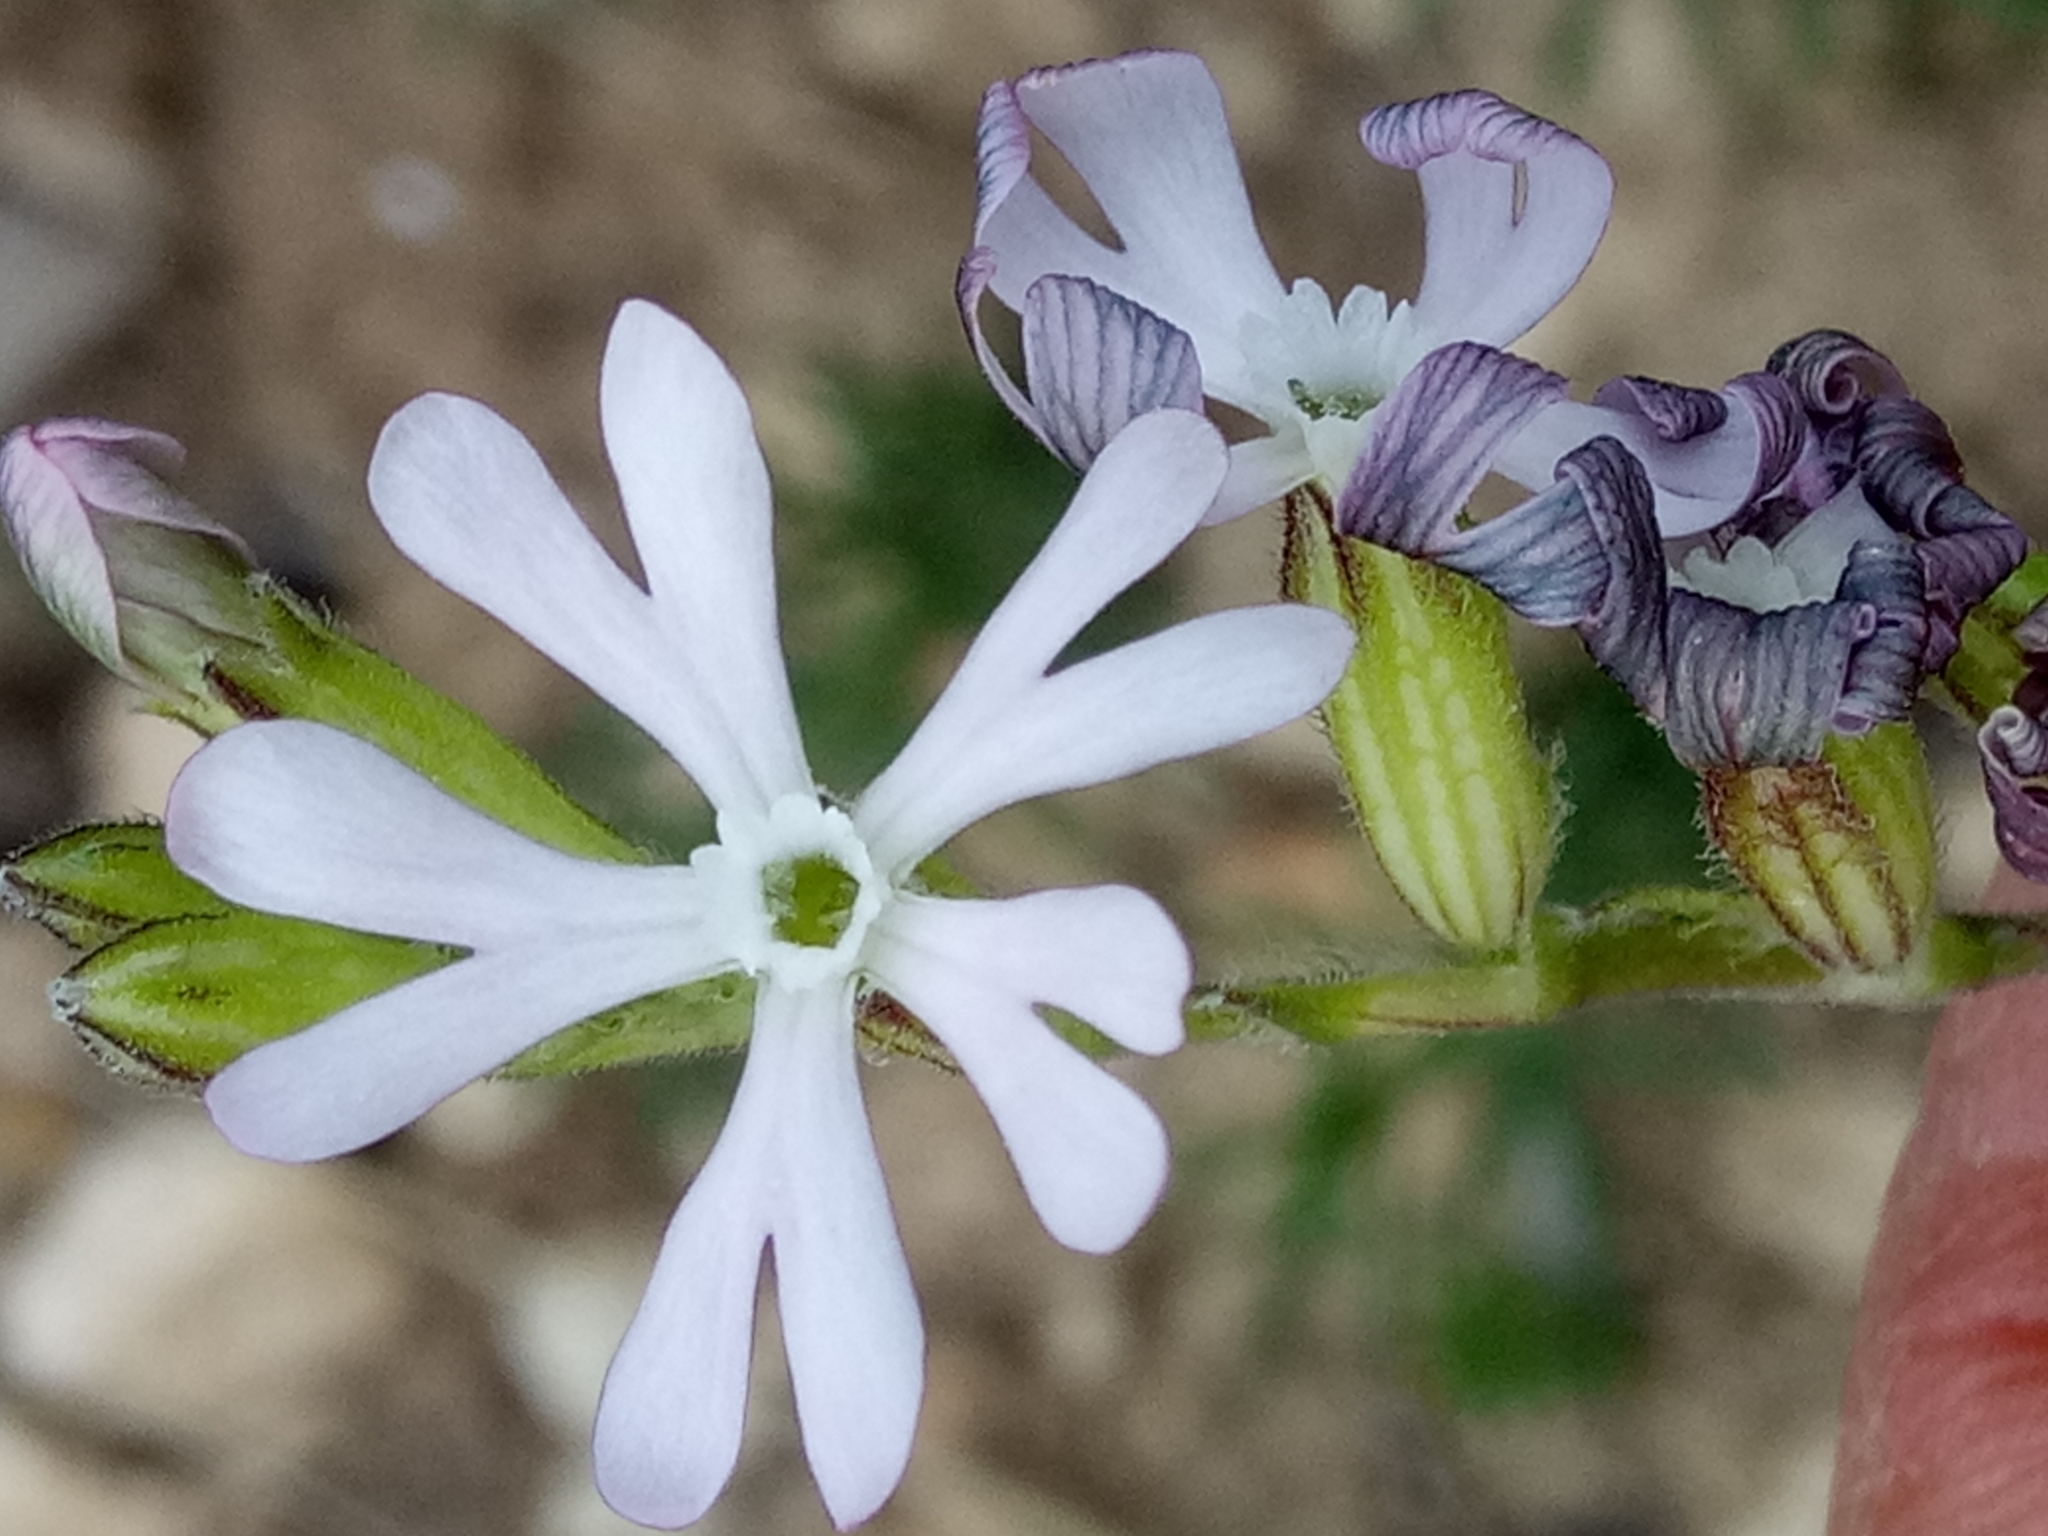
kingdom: Plantae
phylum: Tracheophyta
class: Magnoliopsida
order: Caryophyllales
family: Caryophyllaceae
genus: Silene
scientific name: Silene nocturna
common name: Mediterranean catchfly
